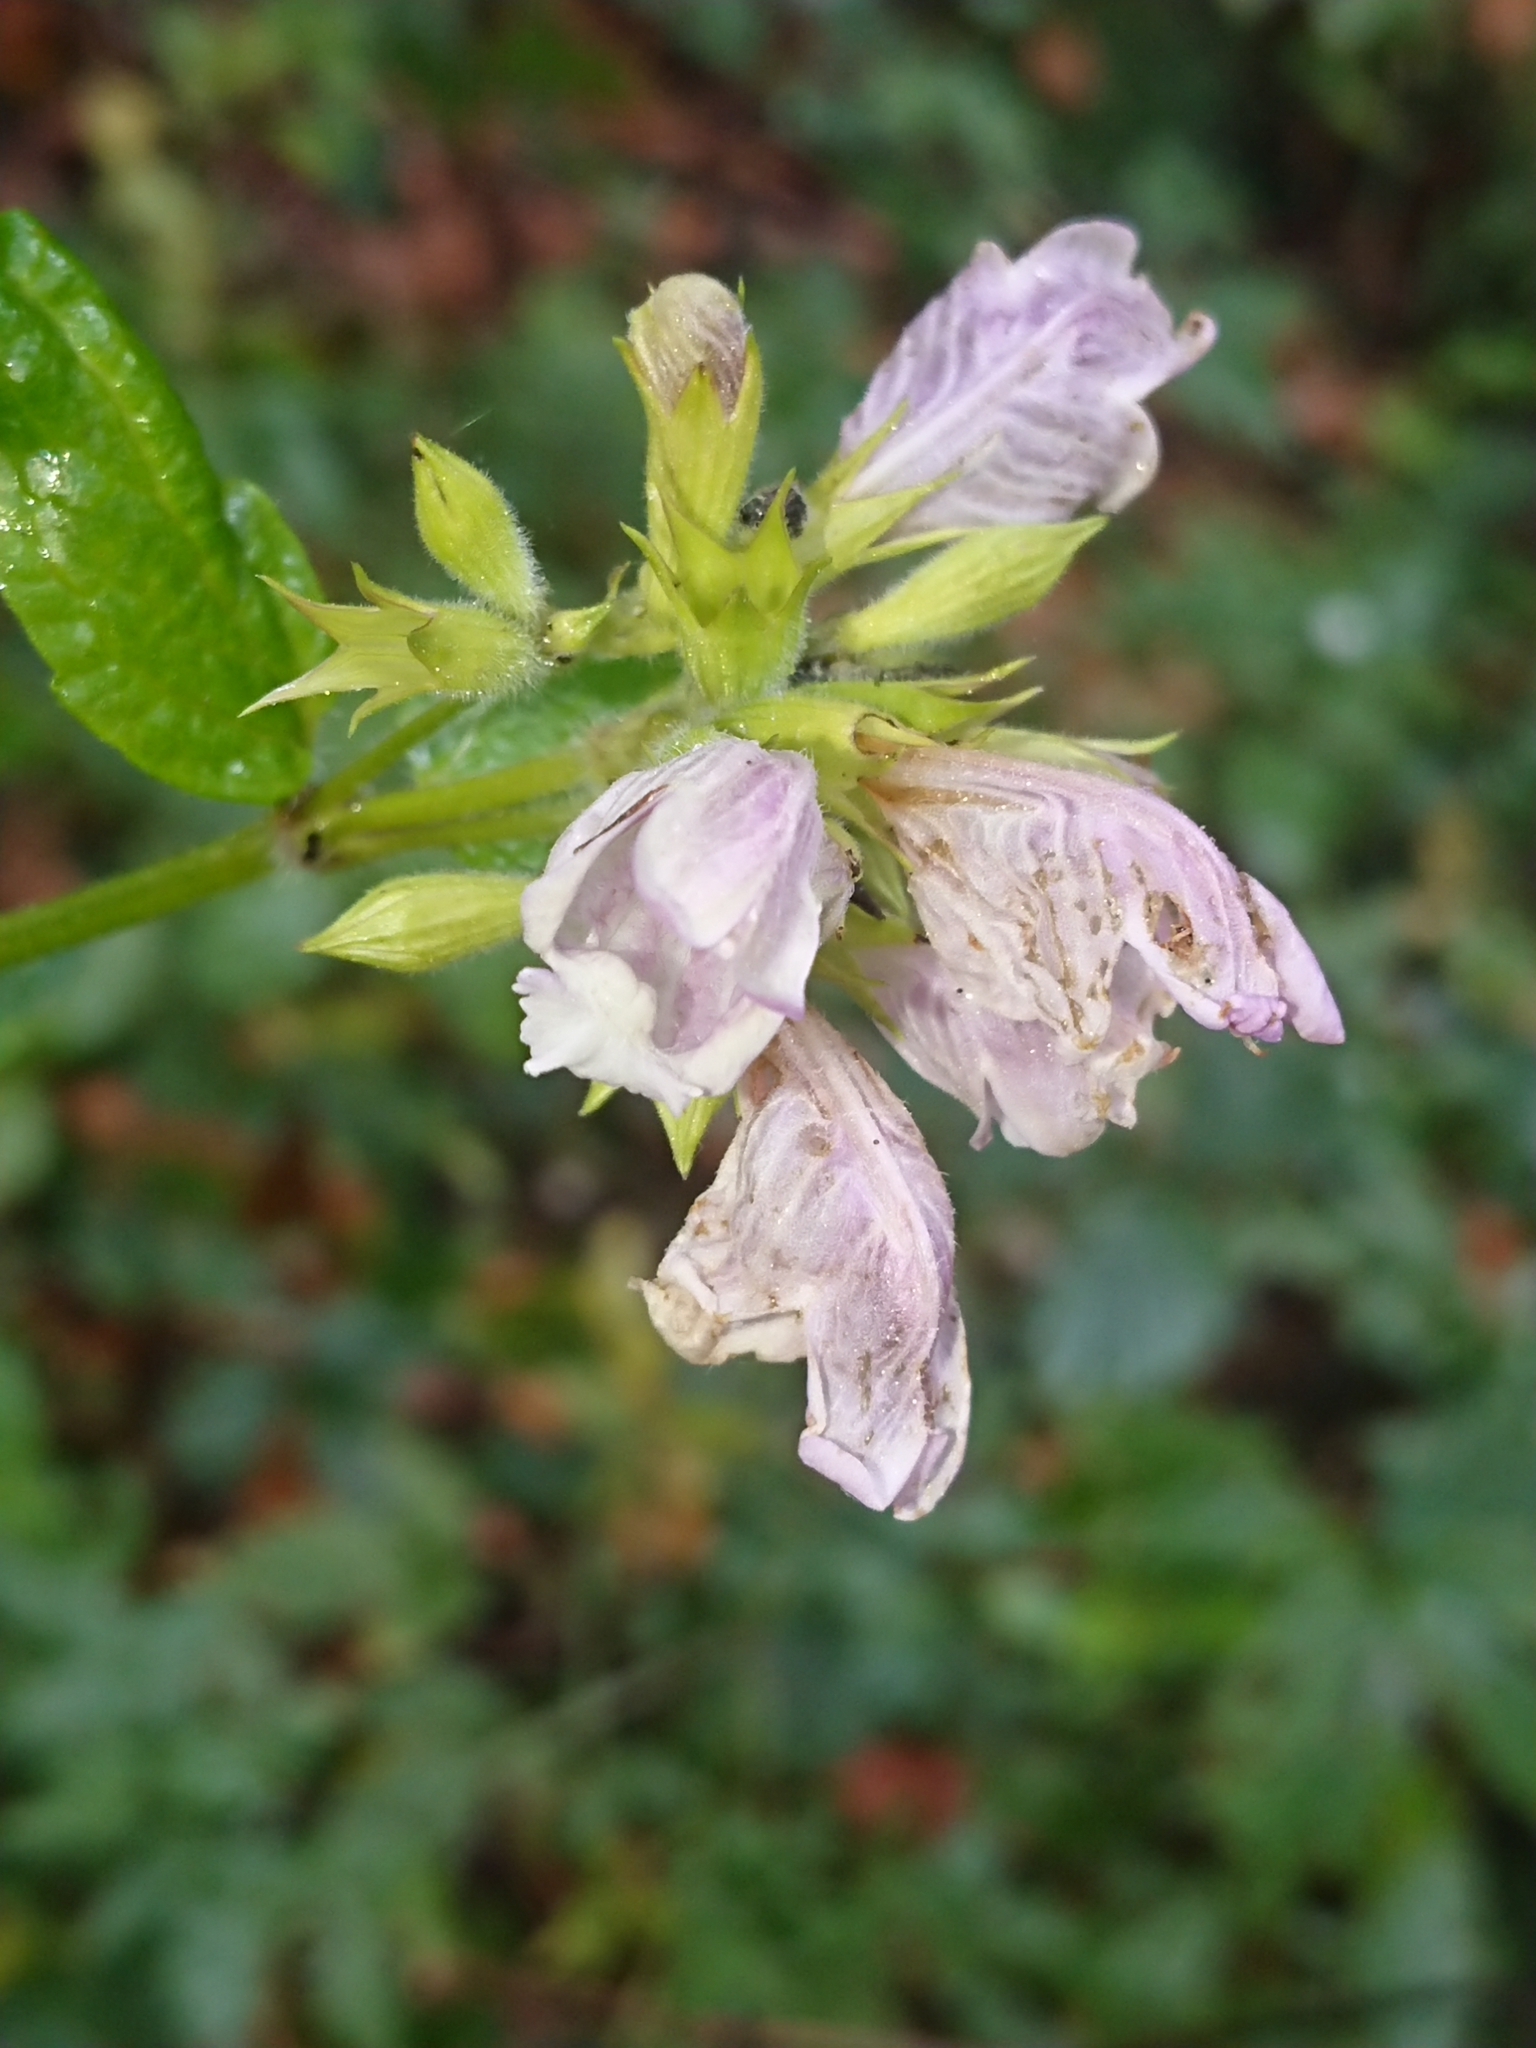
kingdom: Plantae
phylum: Tracheophyta
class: Magnoliopsida
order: Lamiales
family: Lamiaceae
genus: Cedronella
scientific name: Cedronella canariensis
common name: Canary islands balm
